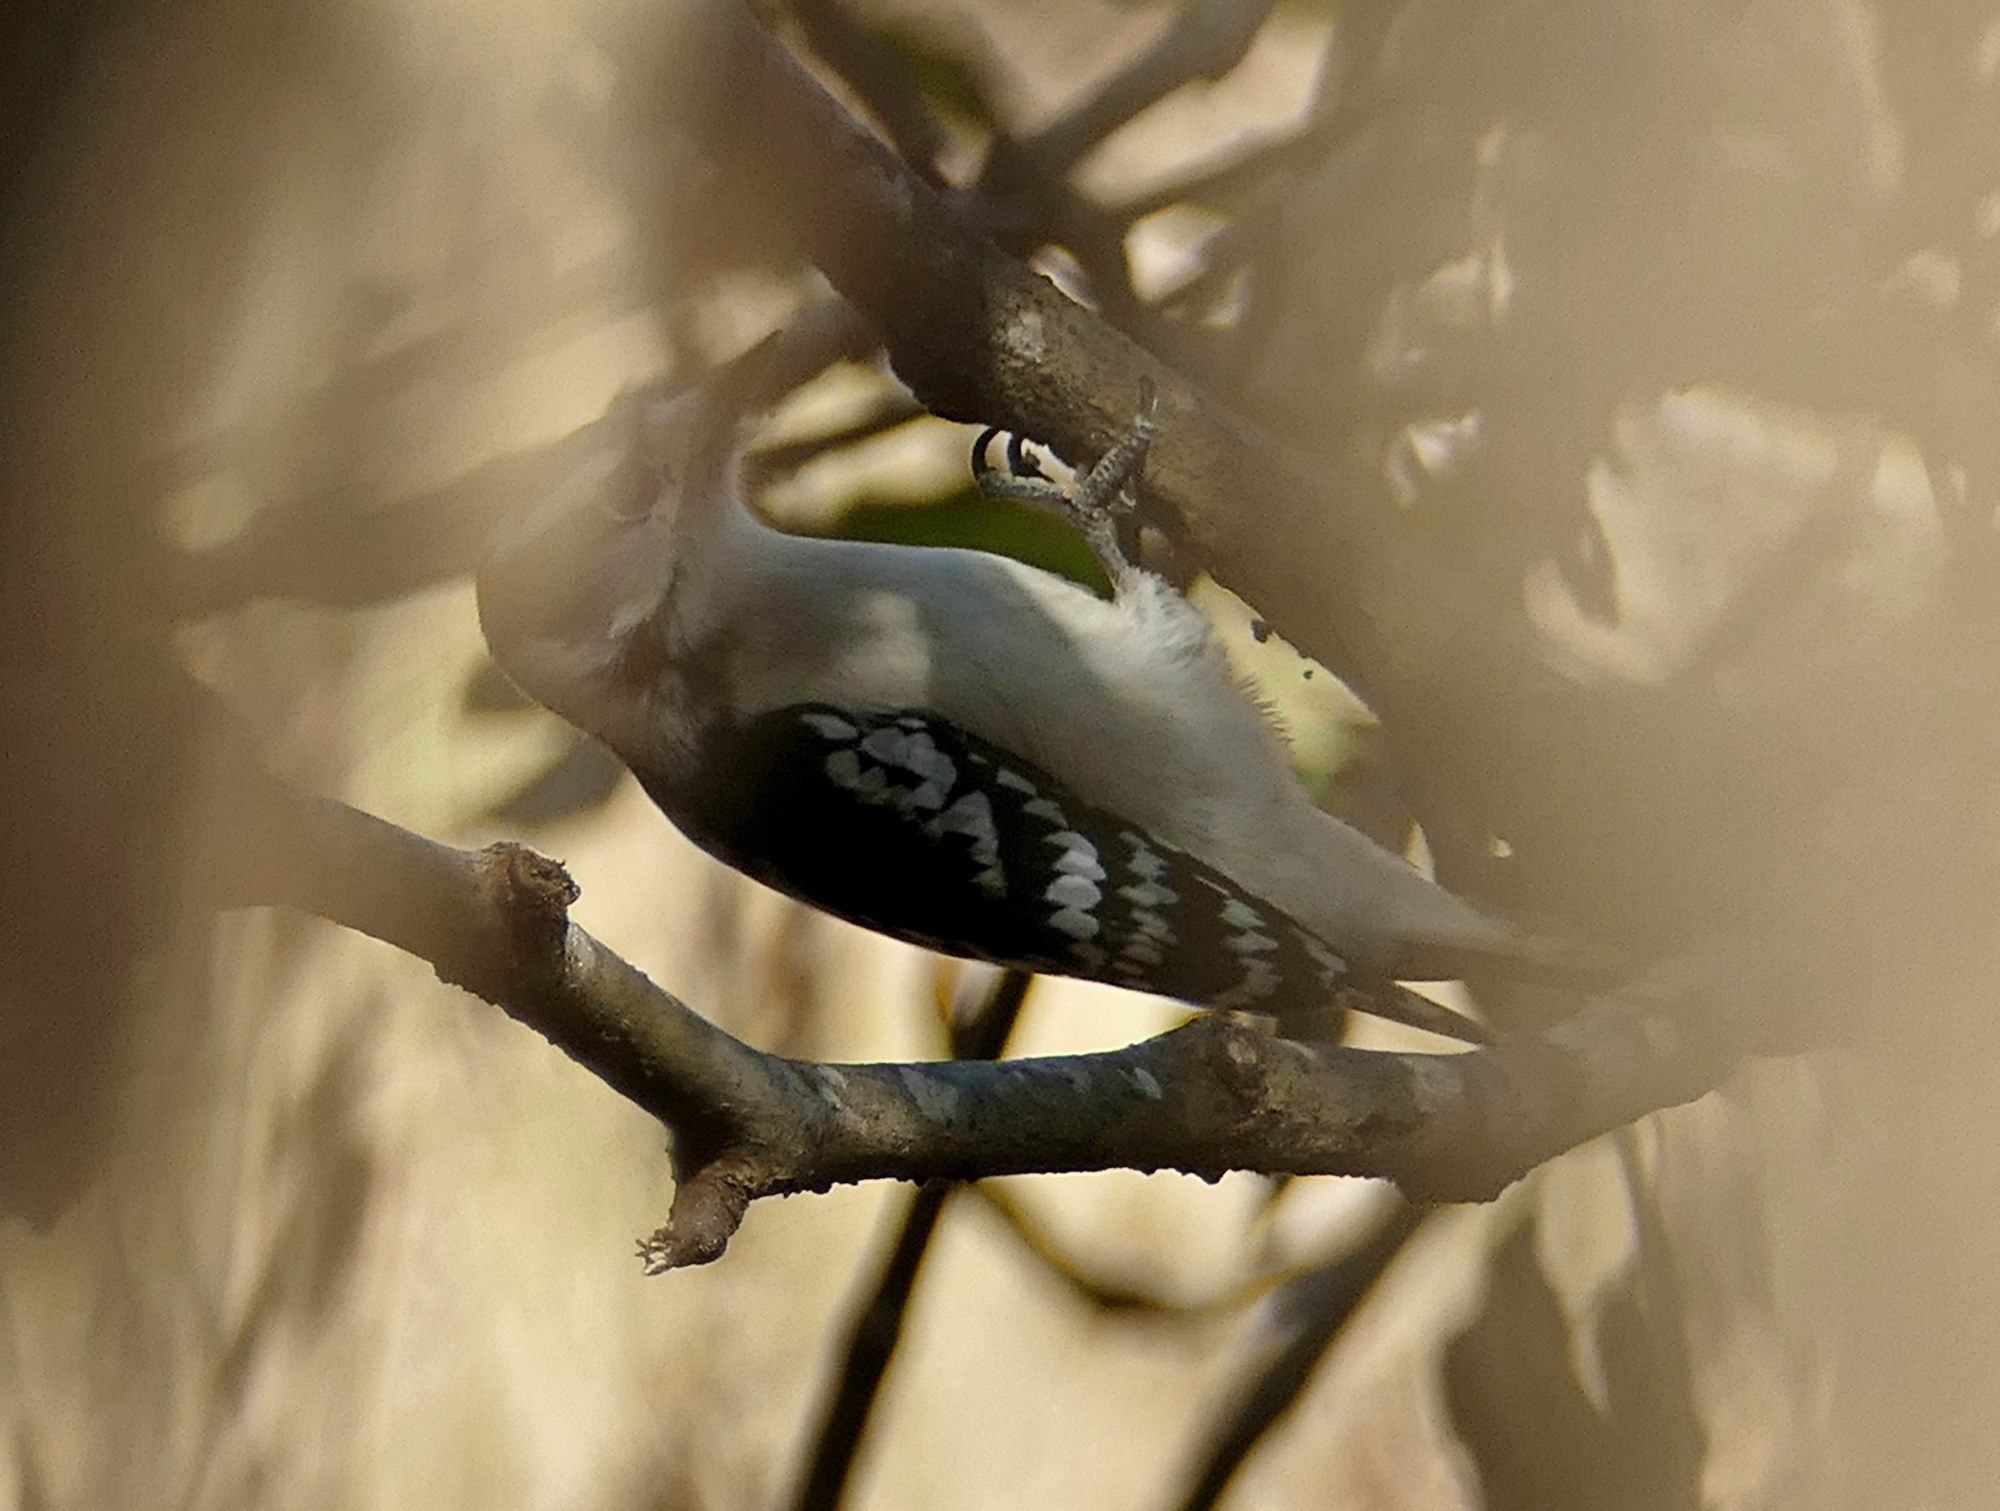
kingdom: Animalia
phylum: Chordata
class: Aves
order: Piciformes
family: Picidae
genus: Dryobates
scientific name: Dryobates pubescens
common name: Downy woodpecker
